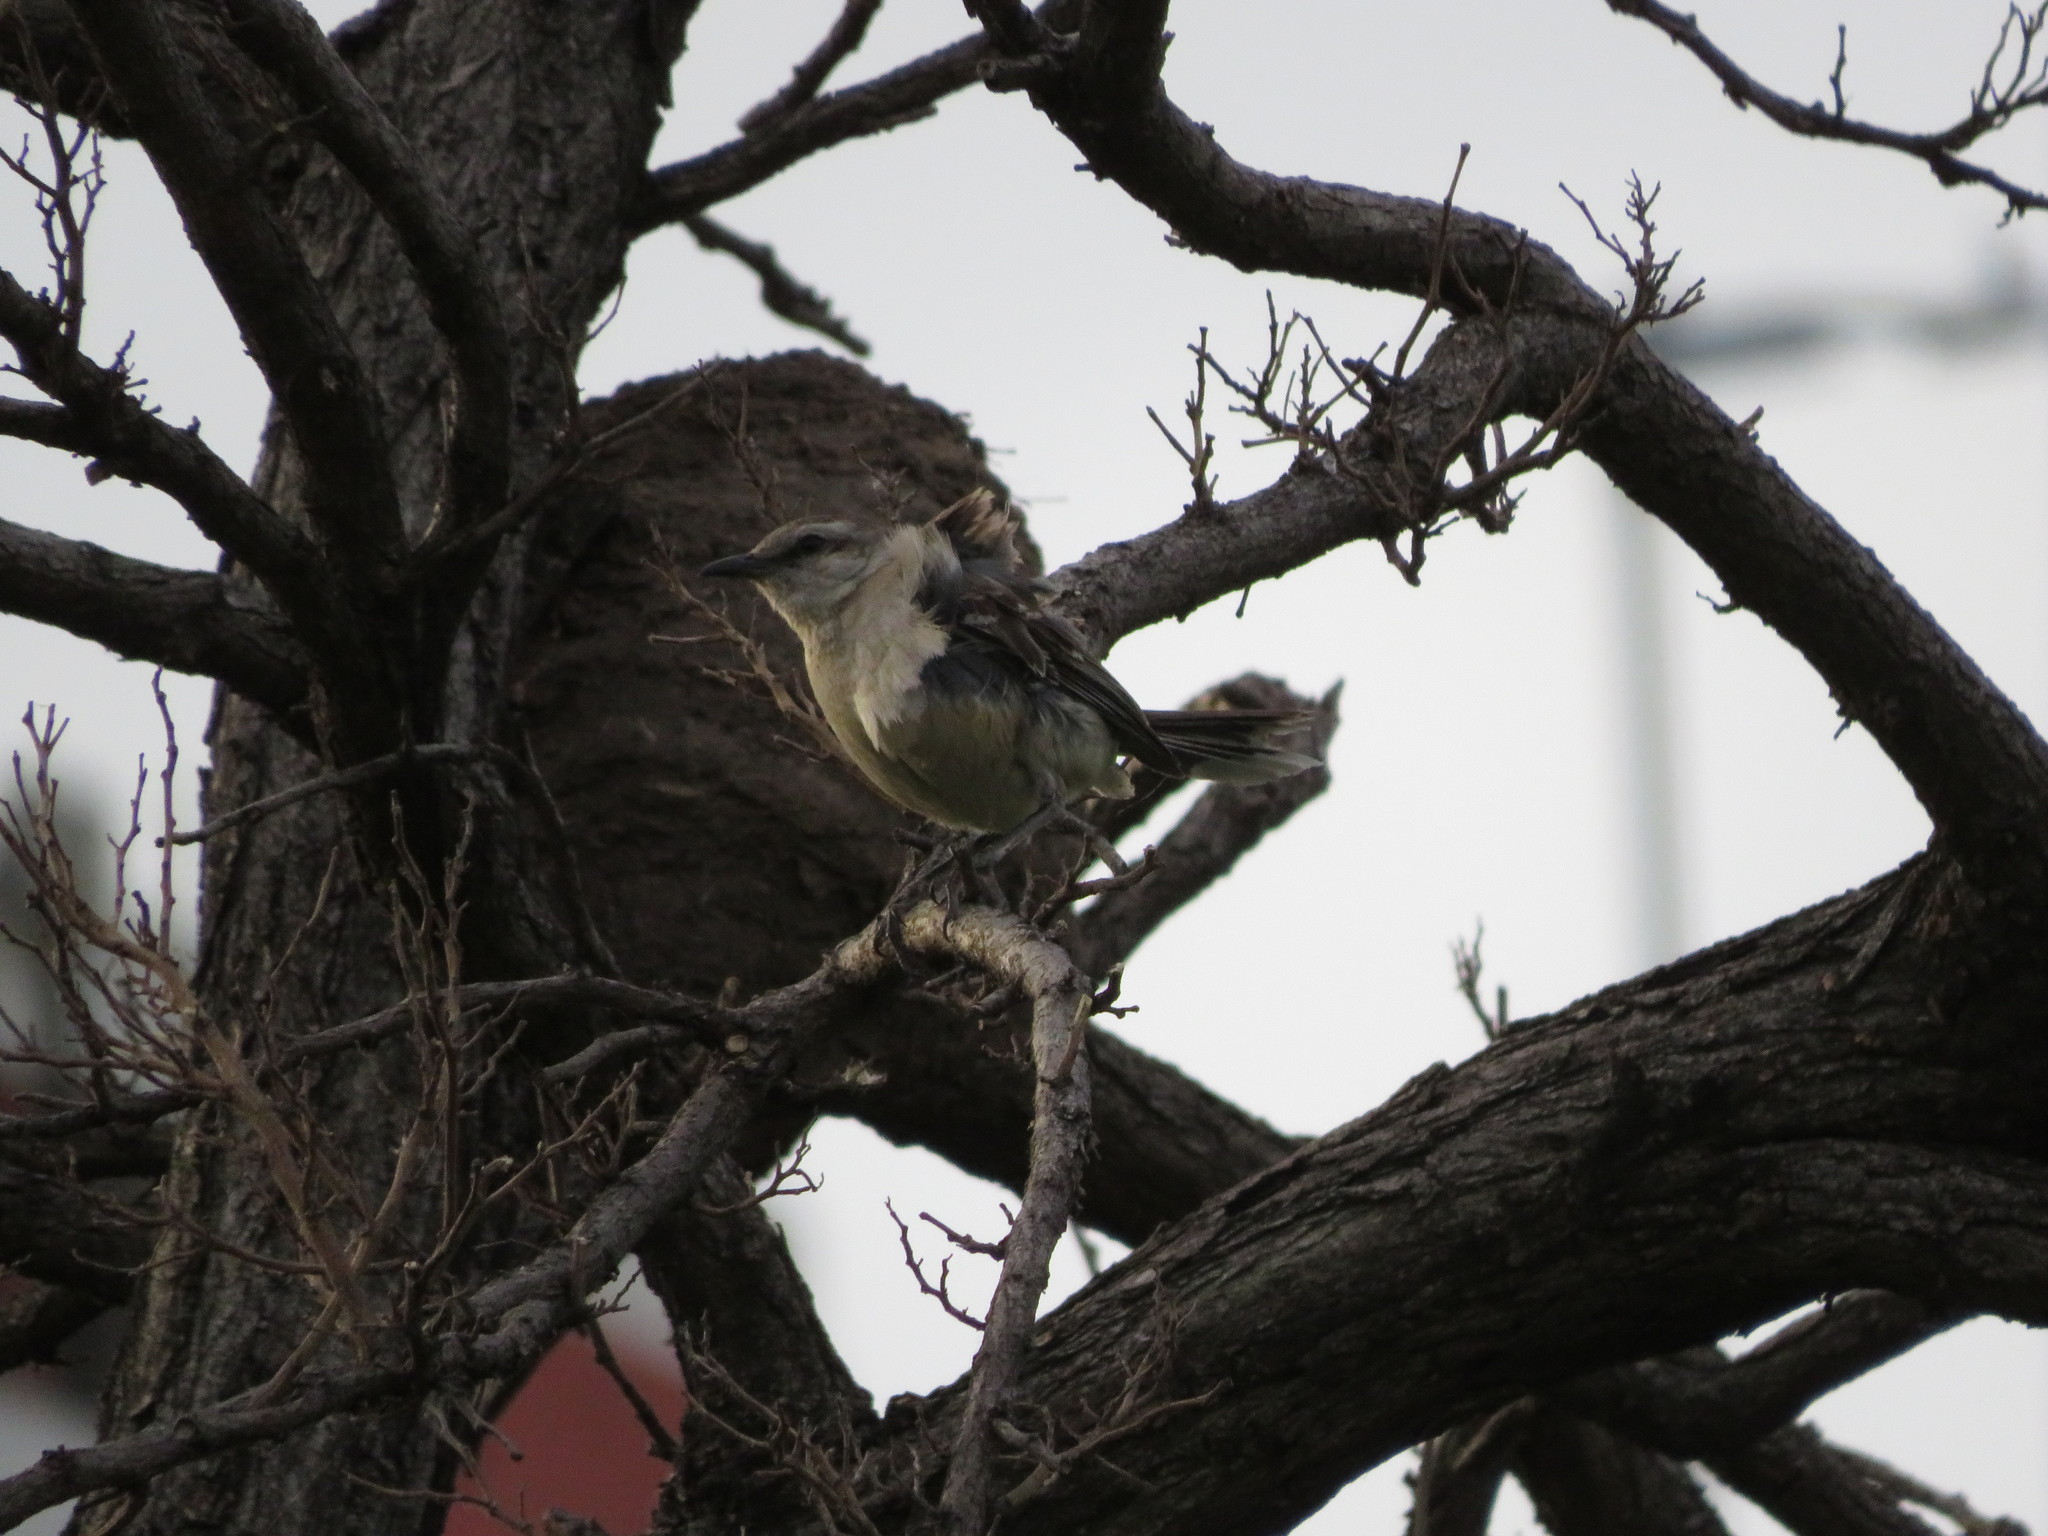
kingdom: Animalia
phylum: Chordata
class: Aves
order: Passeriformes
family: Mimidae
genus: Mimus
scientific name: Mimus saturninus
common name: Chalk-browed mockingbird
